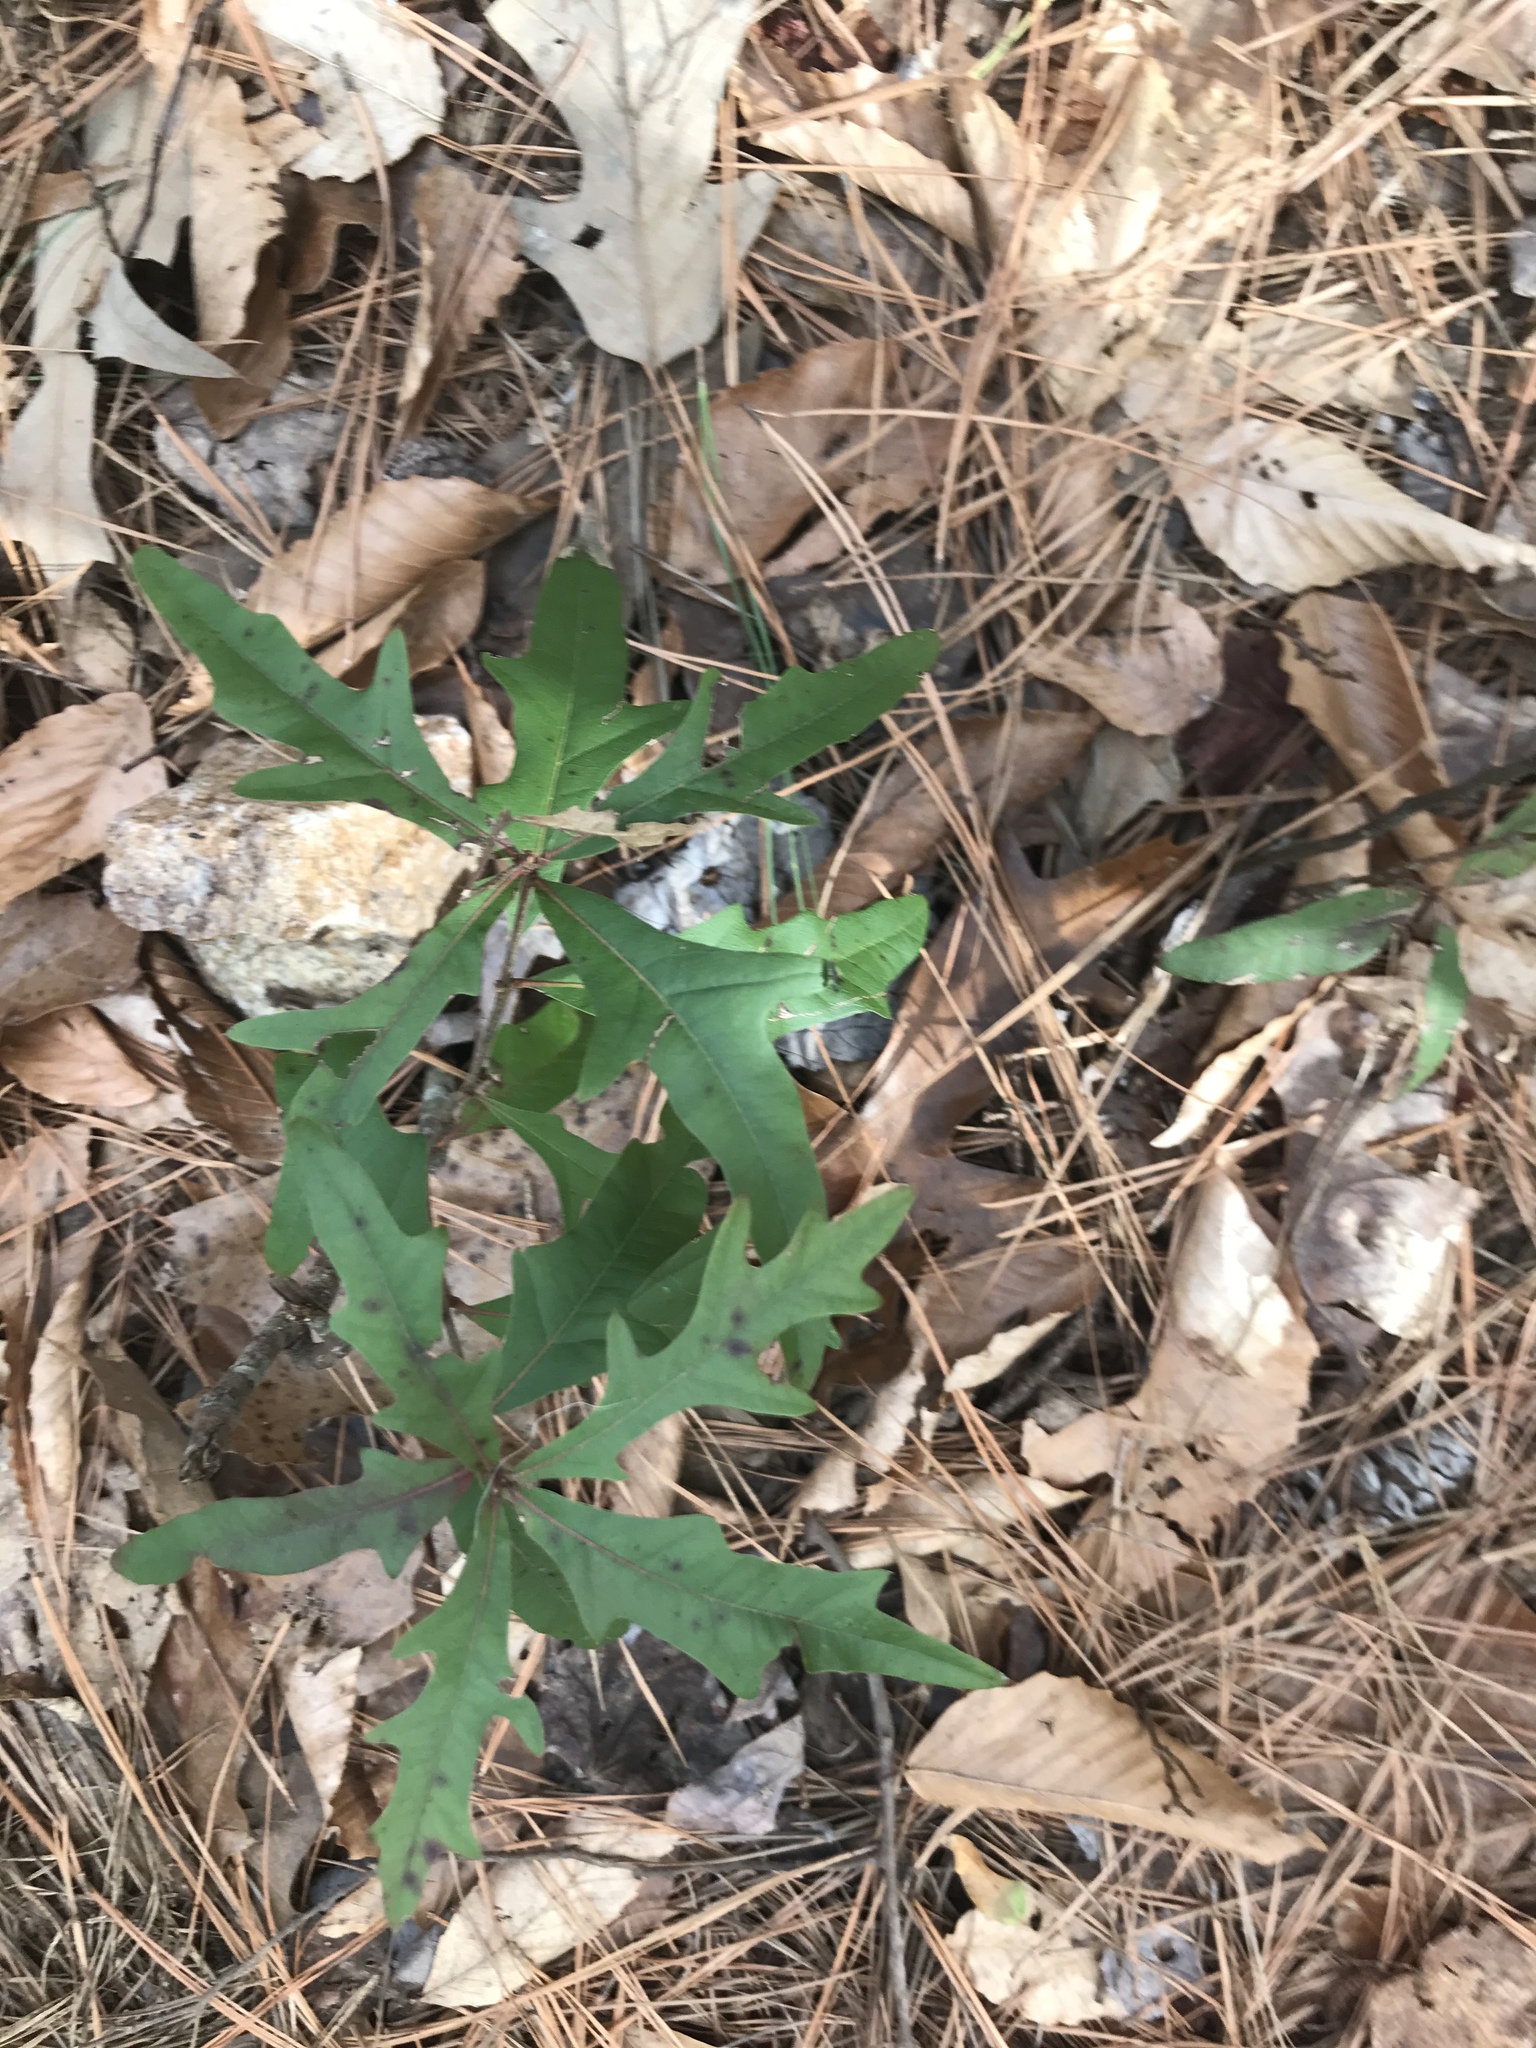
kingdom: Plantae
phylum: Tracheophyta
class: Magnoliopsida
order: Fagales
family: Fagaceae
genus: Quercus
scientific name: Quercus nigra
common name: Water oak
